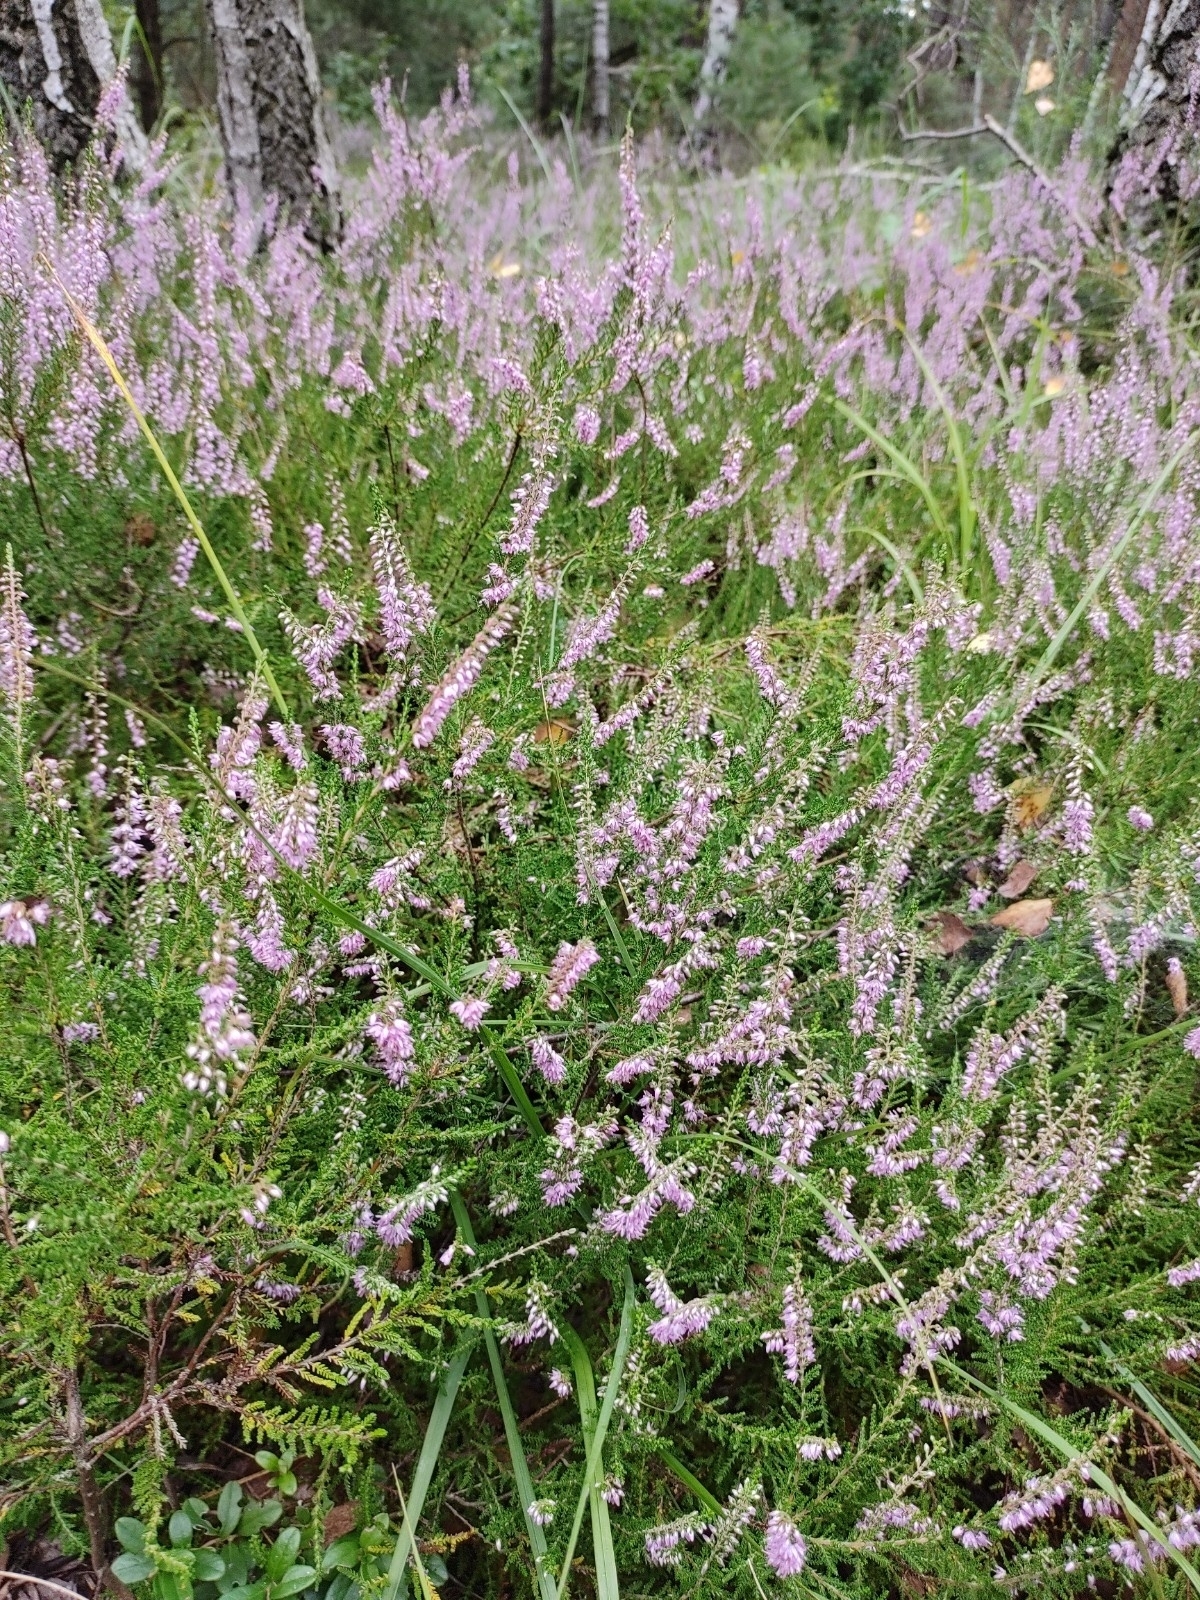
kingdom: Plantae
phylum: Tracheophyta
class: Magnoliopsida
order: Ericales
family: Ericaceae
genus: Calluna
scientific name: Calluna vulgaris
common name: Heather
